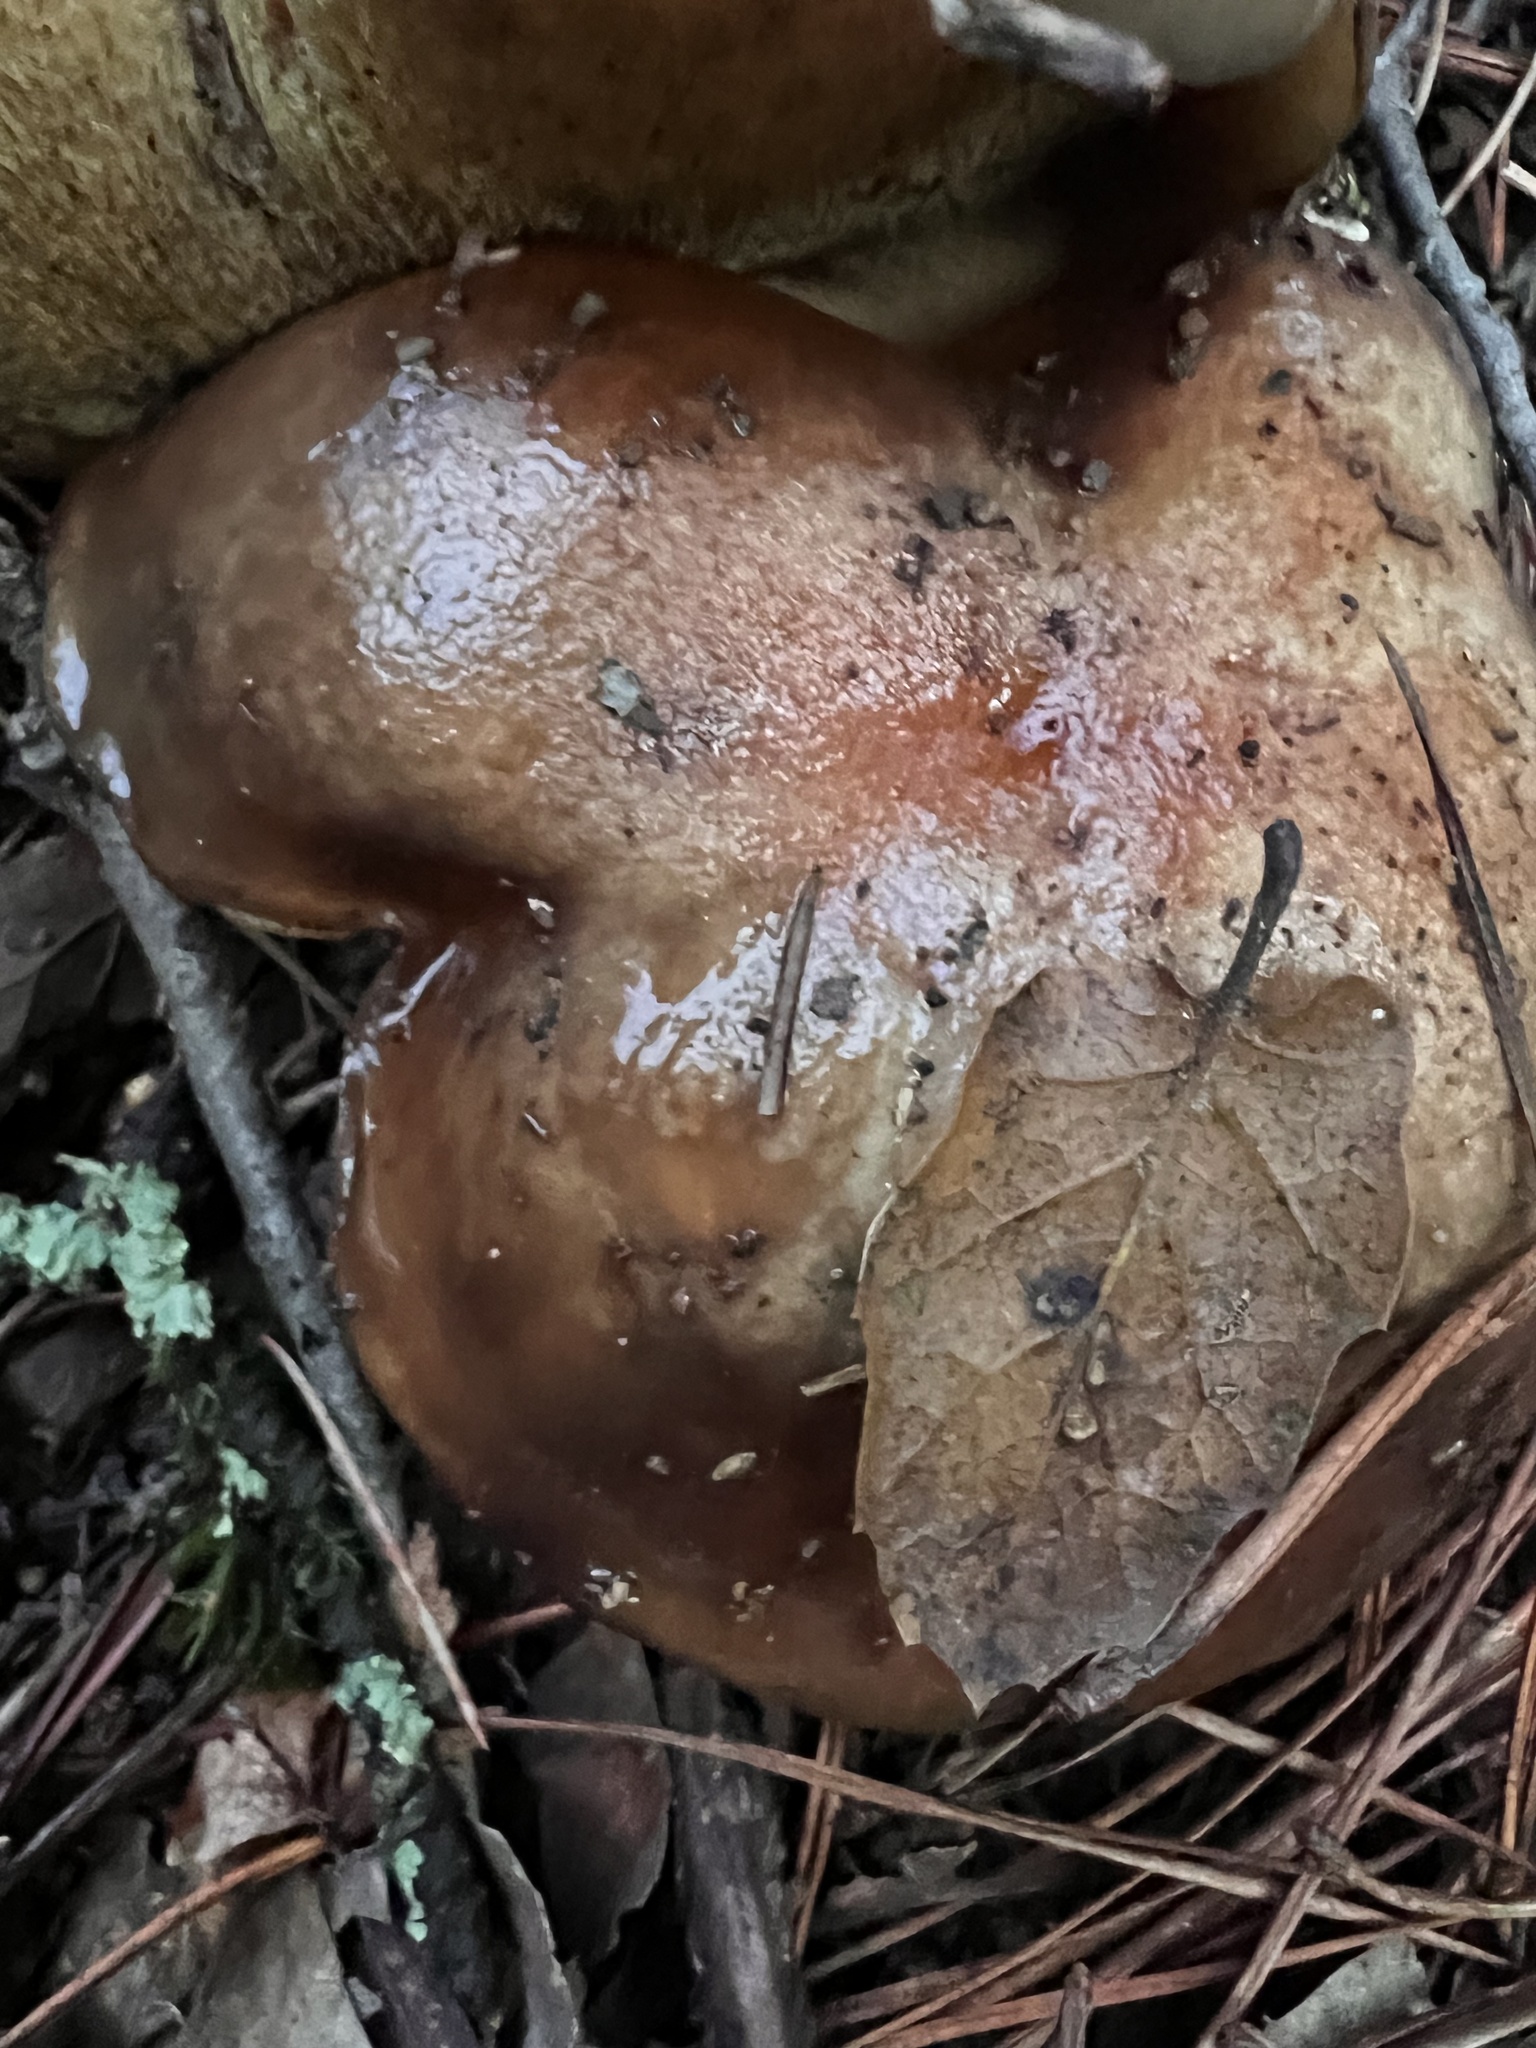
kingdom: Fungi
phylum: Basidiomycota
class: Agaricomycetes
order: Boletales
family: Suillaceae
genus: Suillus
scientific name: Suillus pungens
